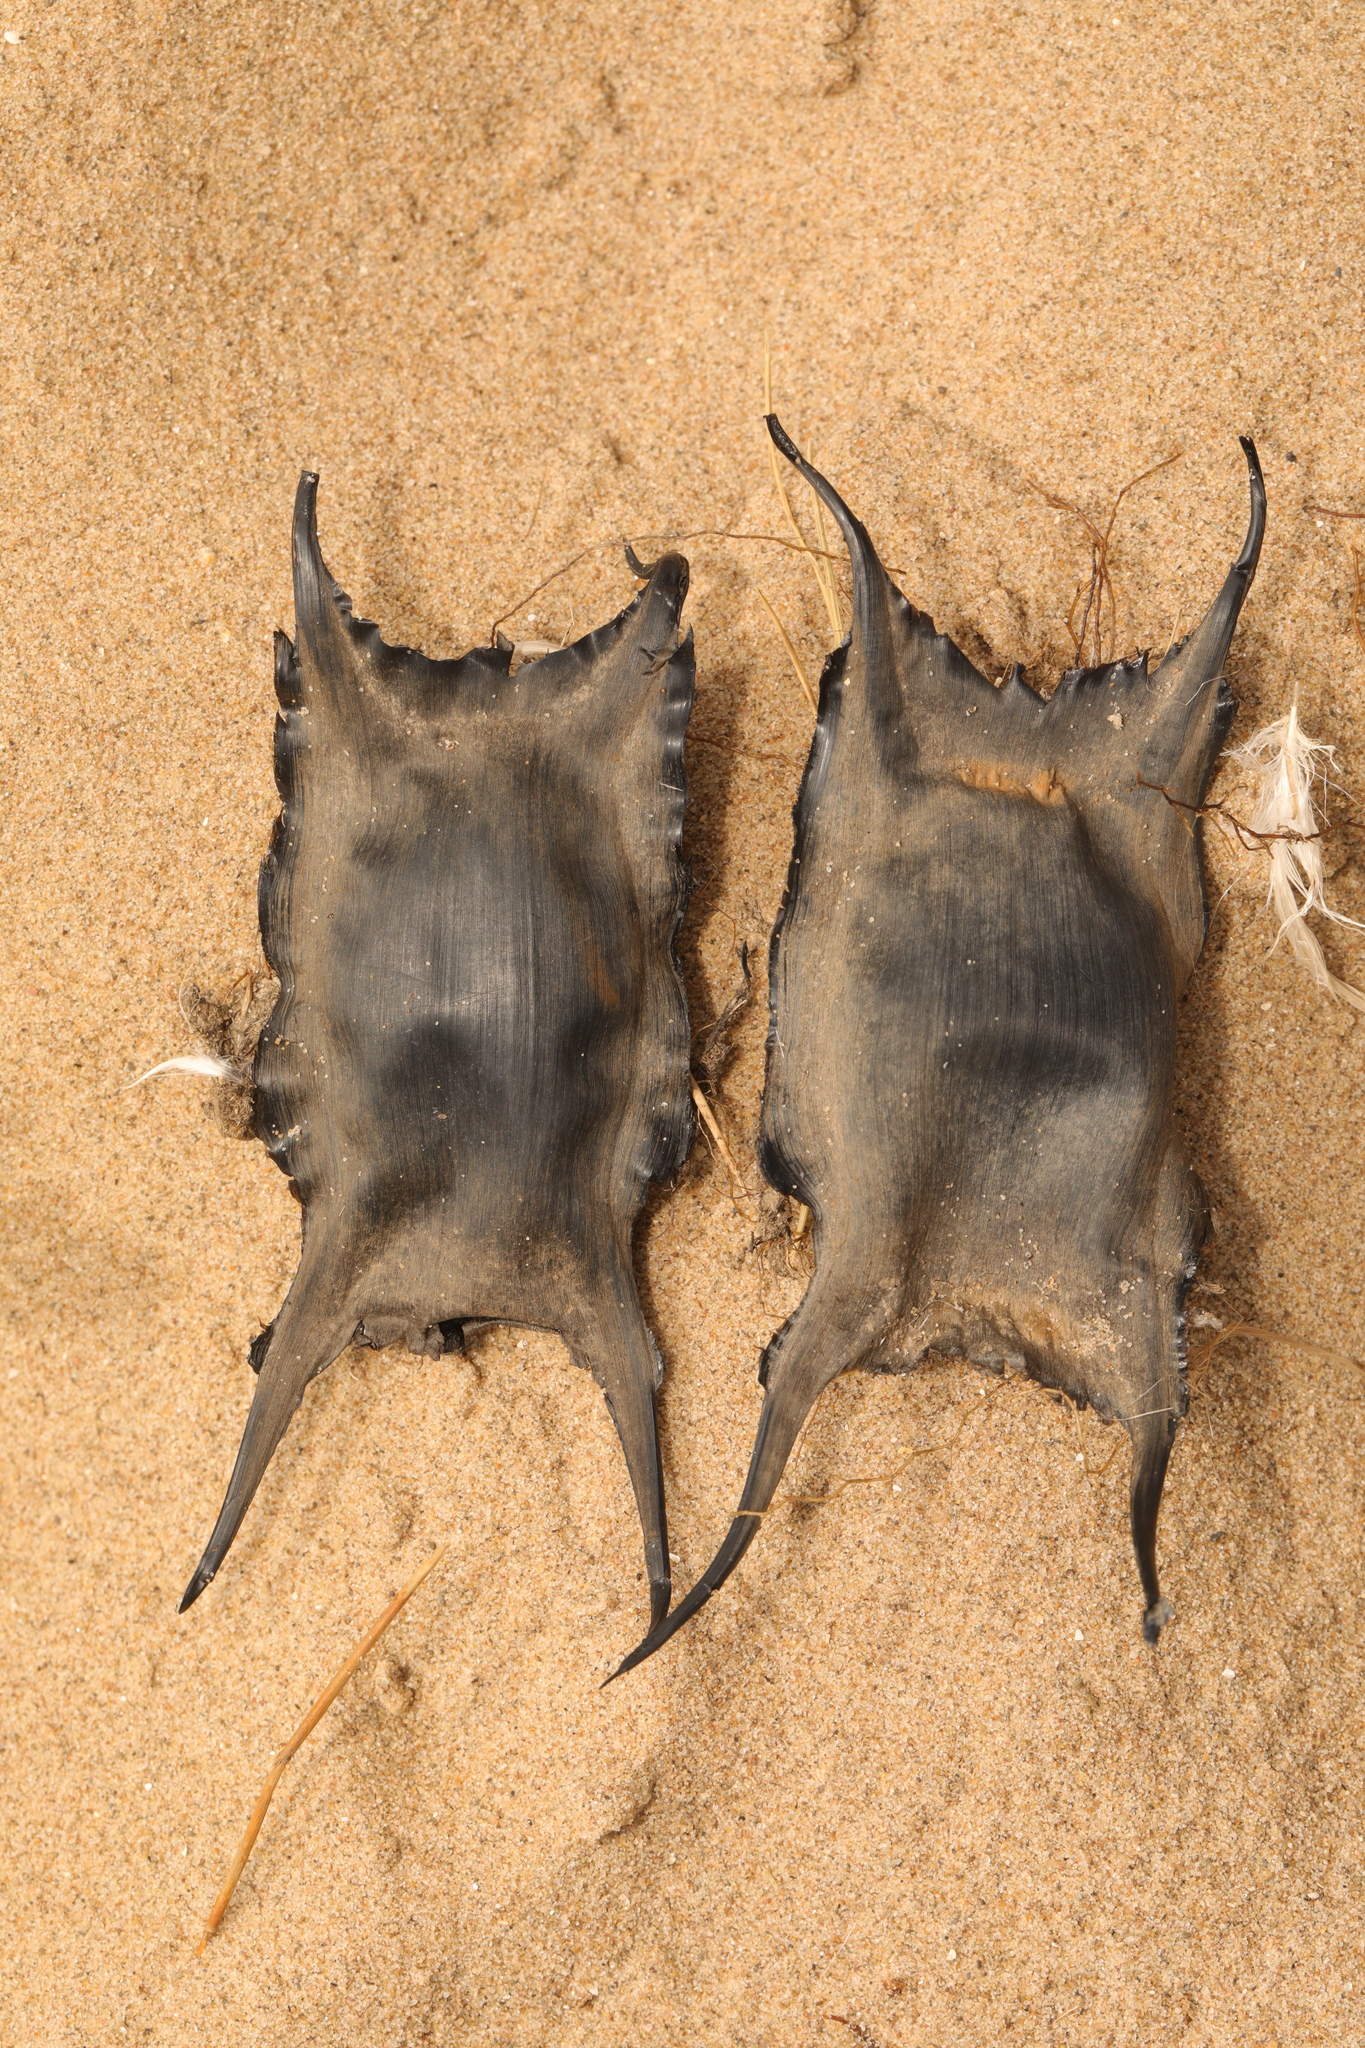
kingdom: Animalia
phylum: Chordata
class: Elasmobranchii
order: Rajiformes
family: Rajidae
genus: Raja
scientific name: Raja clavata
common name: Thornback ray
